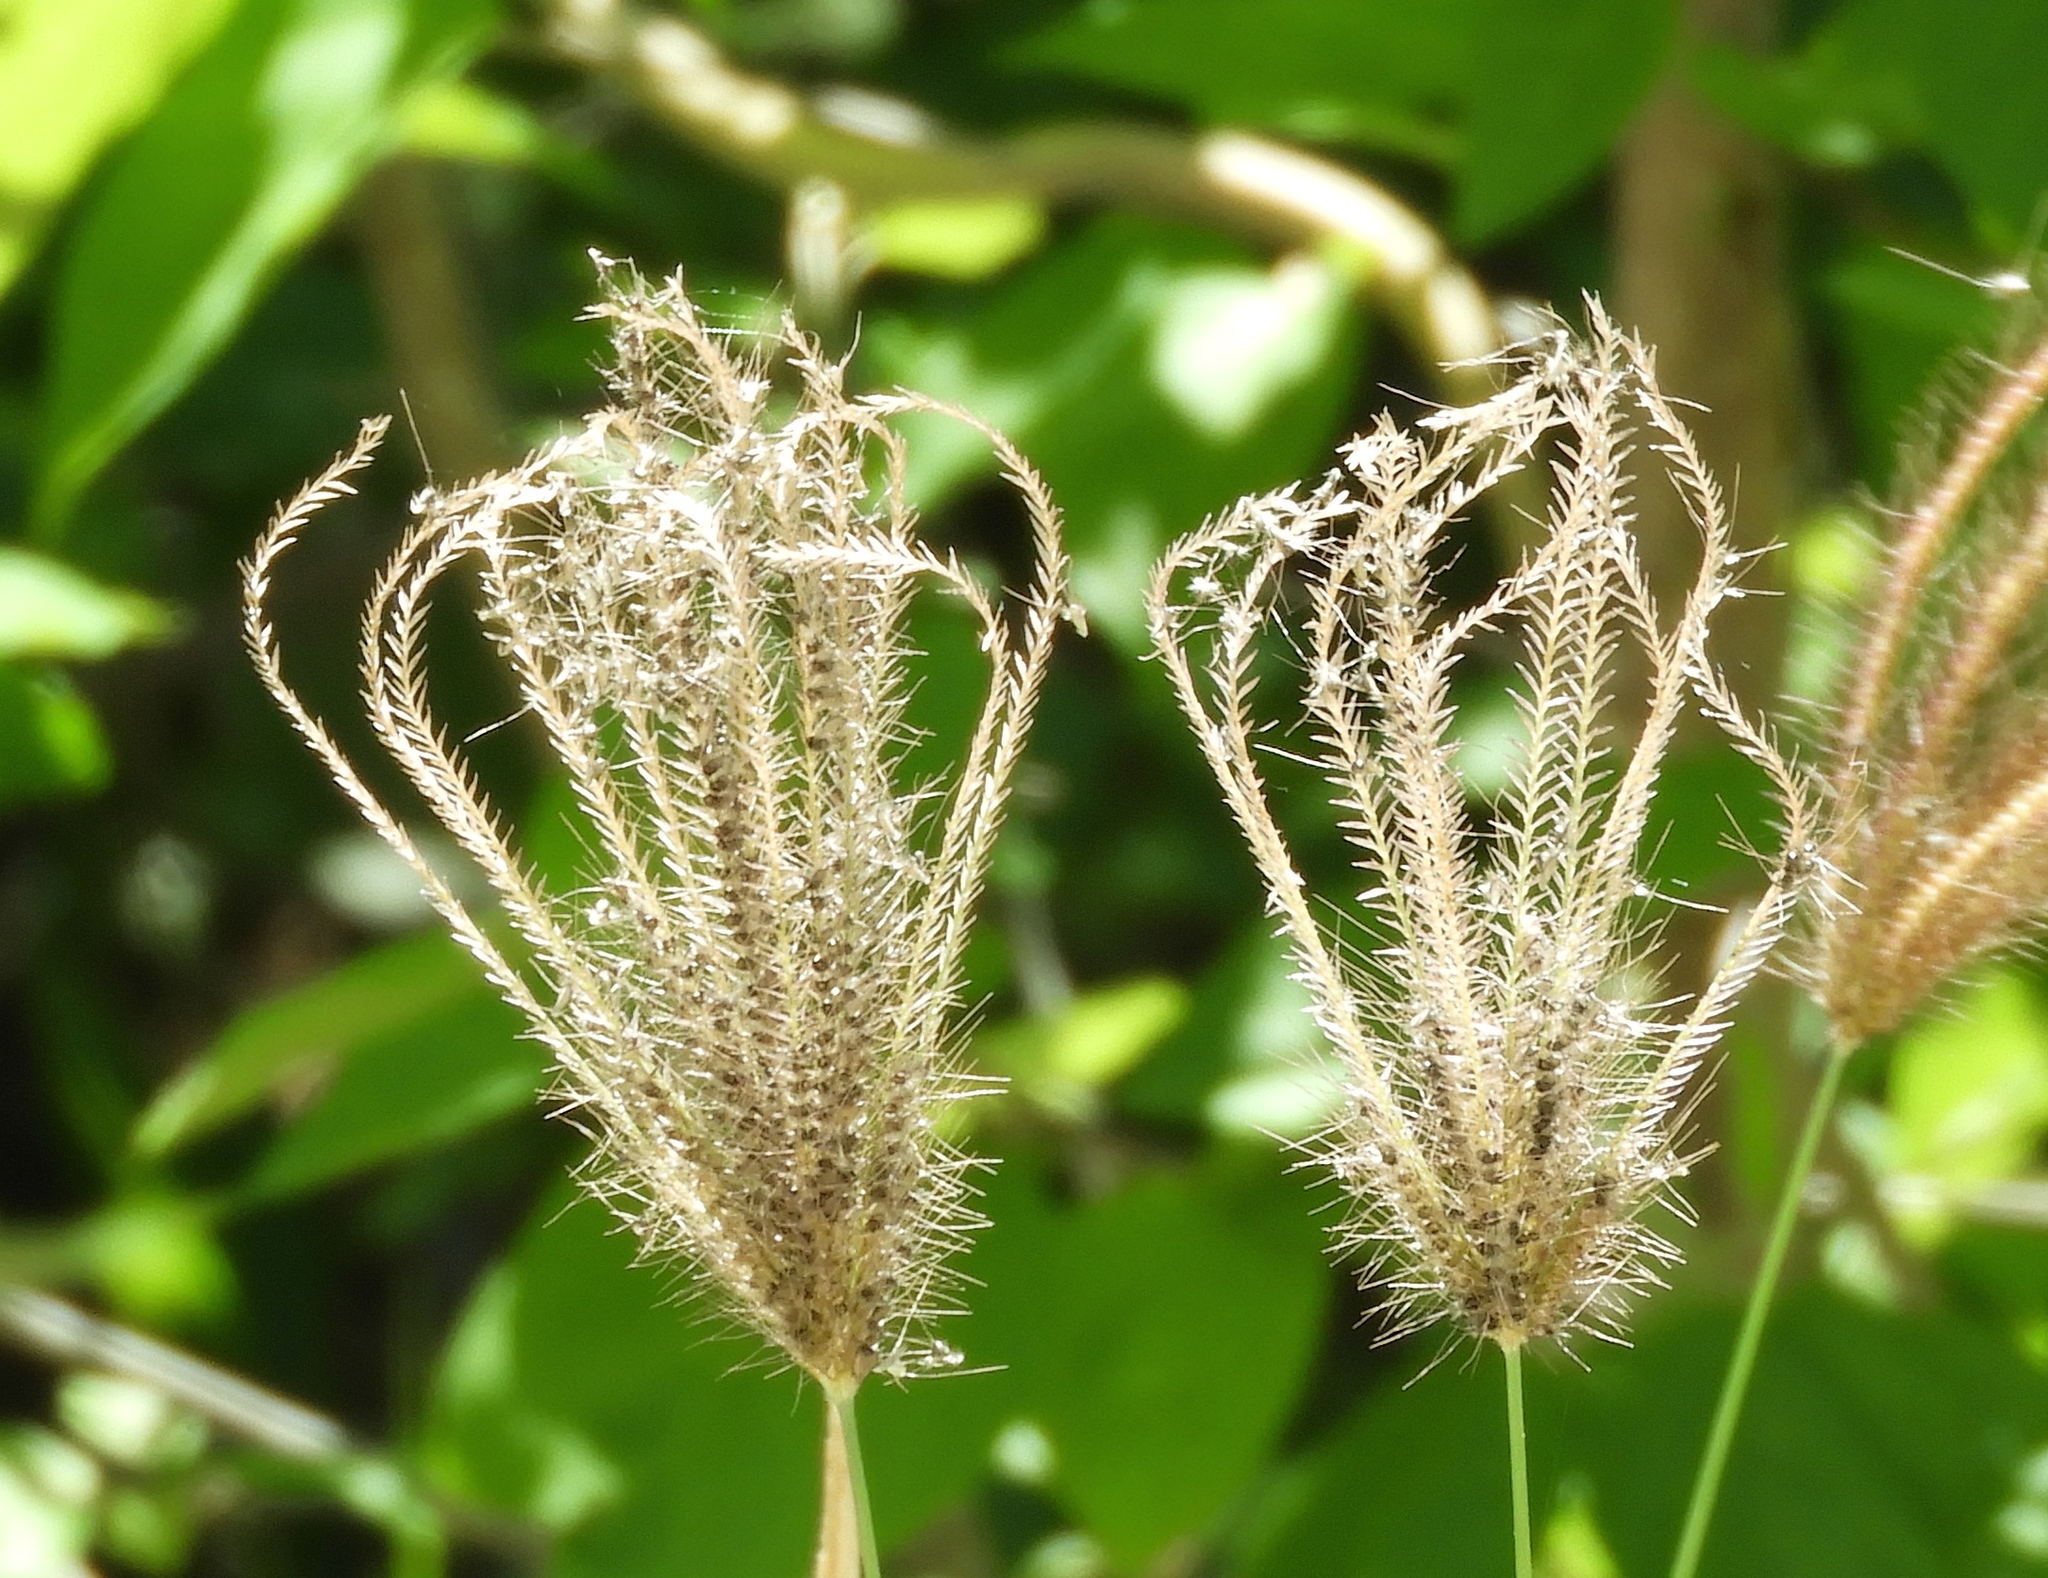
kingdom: Plantae
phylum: Tracheophyta
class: Liliopsida
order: Poales
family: Poaceae
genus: Chloris
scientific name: Chloris virgata
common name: Feathery rhodes-grass
